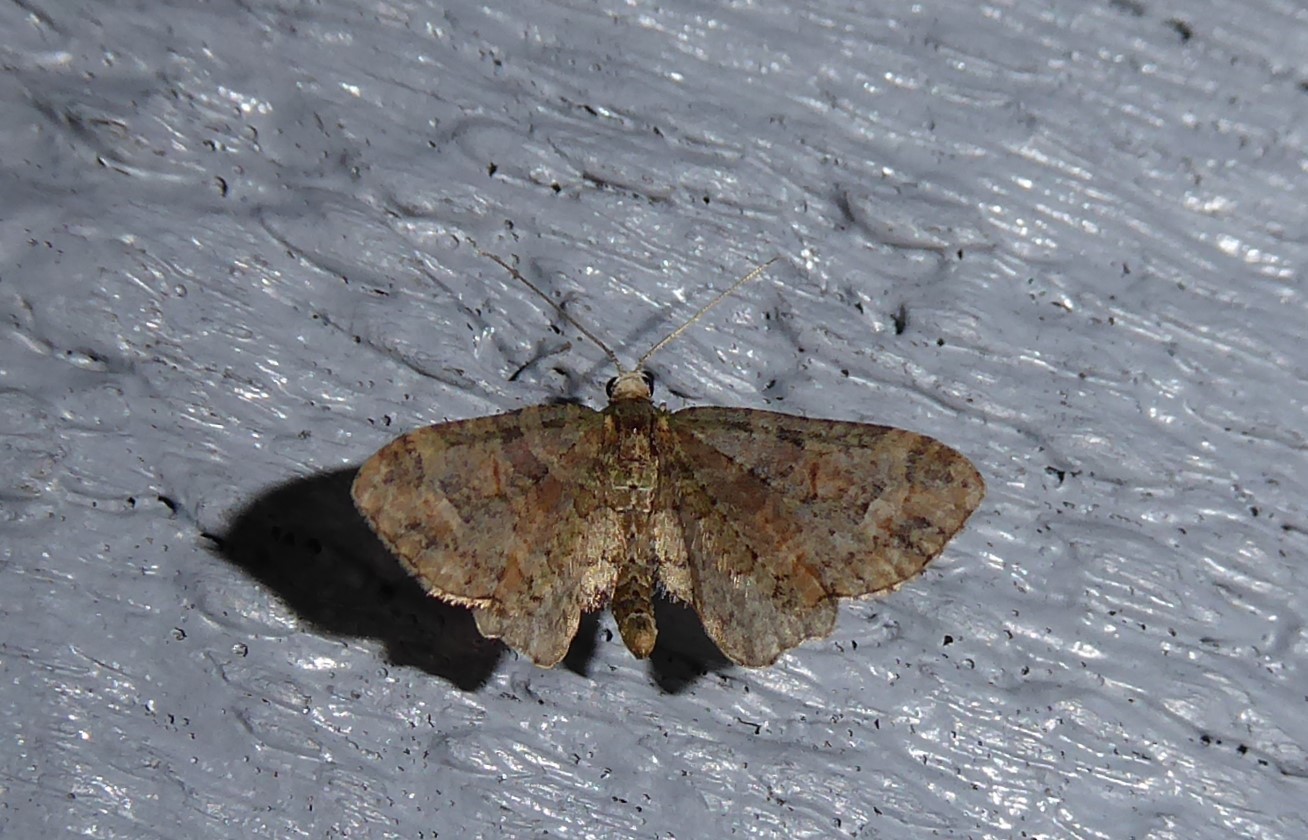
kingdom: Animalia
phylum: Arthropoda
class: Insecta
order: Lepidoptera
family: Geometridae
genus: Idaea
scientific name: Idaea mutanda
